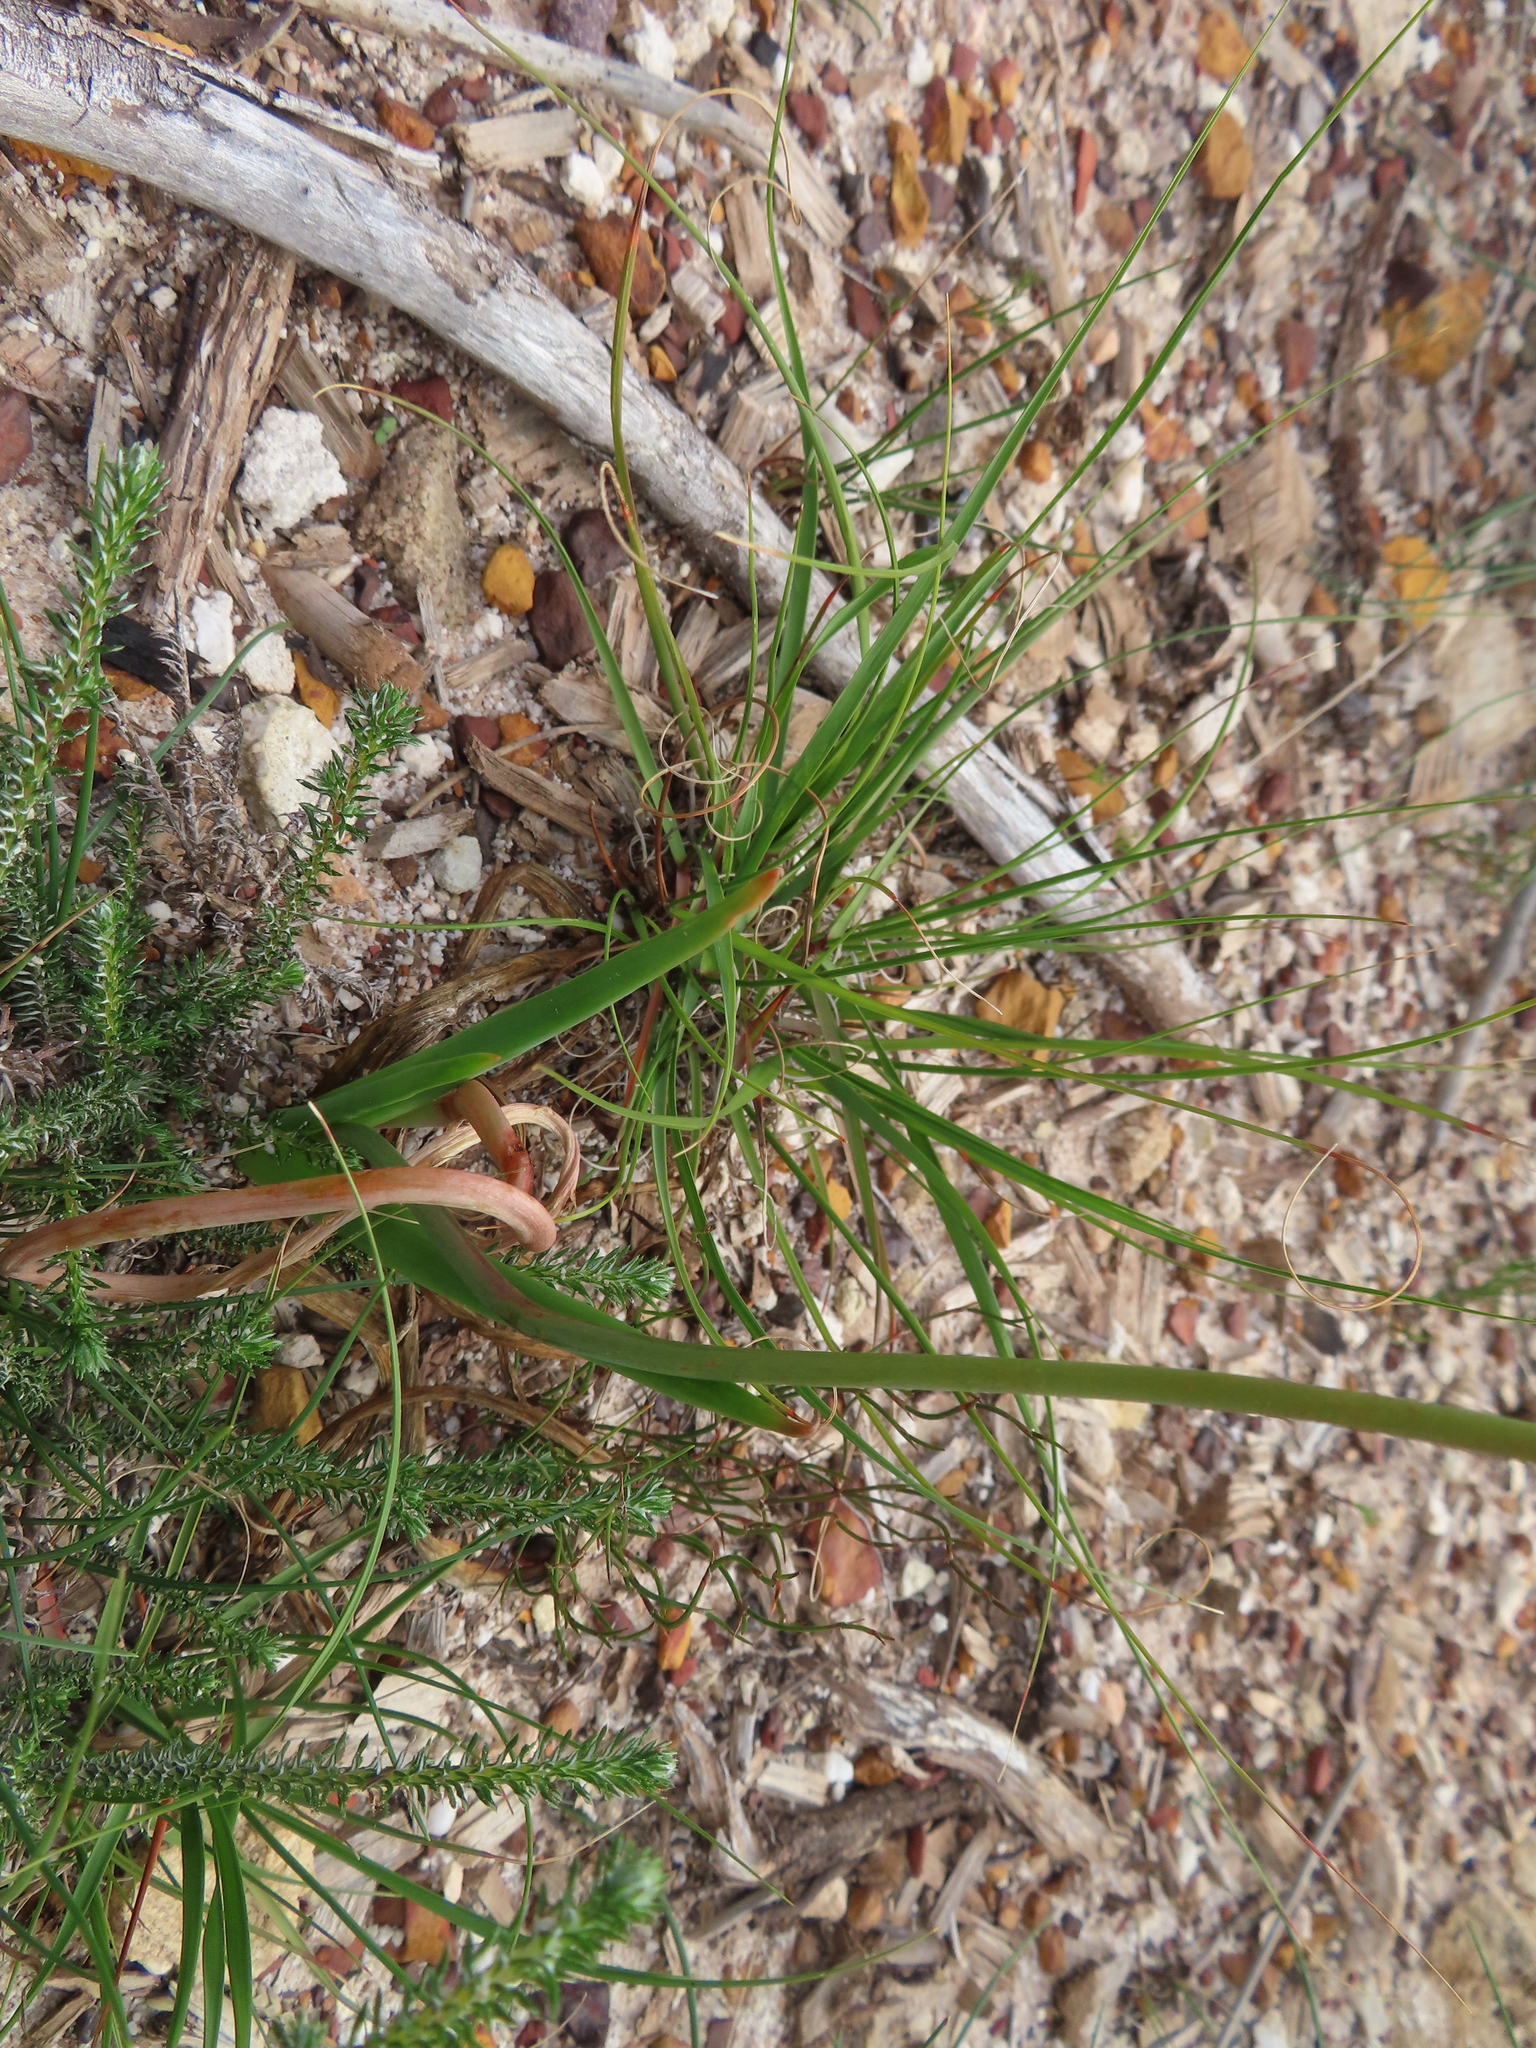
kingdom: Plantae
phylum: Tracheophyta
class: Liliopsida
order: Asparagales
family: Asphodelaceae
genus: Bulbine
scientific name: Bulbine praemorsa
